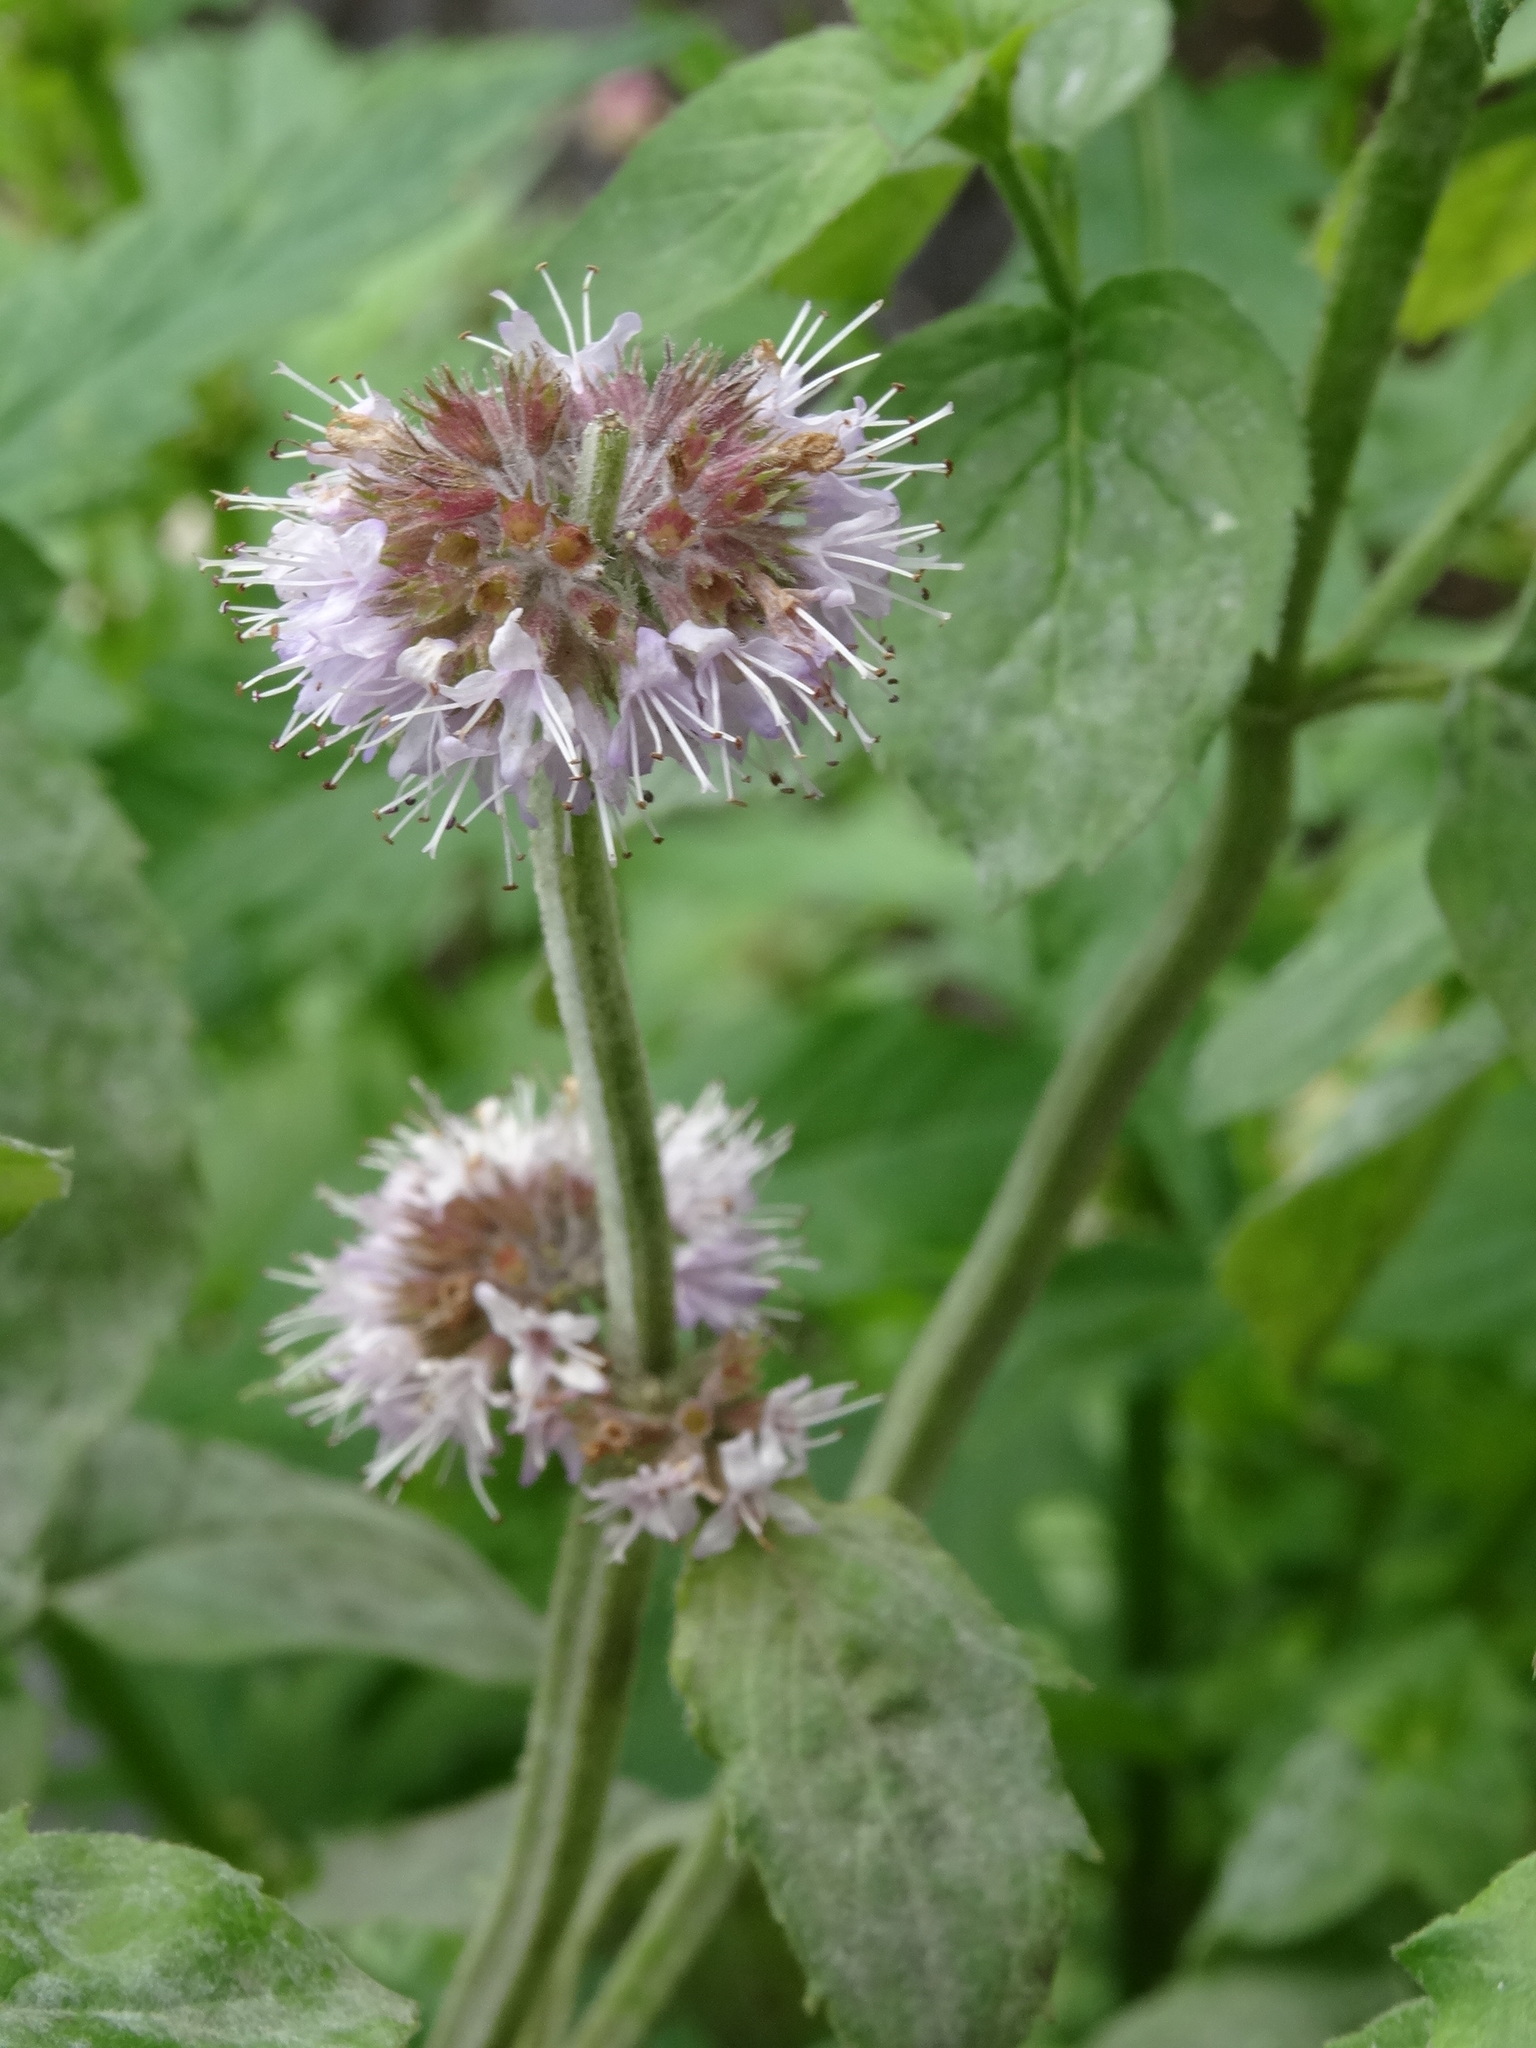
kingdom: Plantae
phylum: Tracheophyta
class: Magnoliopsida
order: Lamiales
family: Lamiaceae
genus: Mentha
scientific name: Mentha aquatica
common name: Water mint
